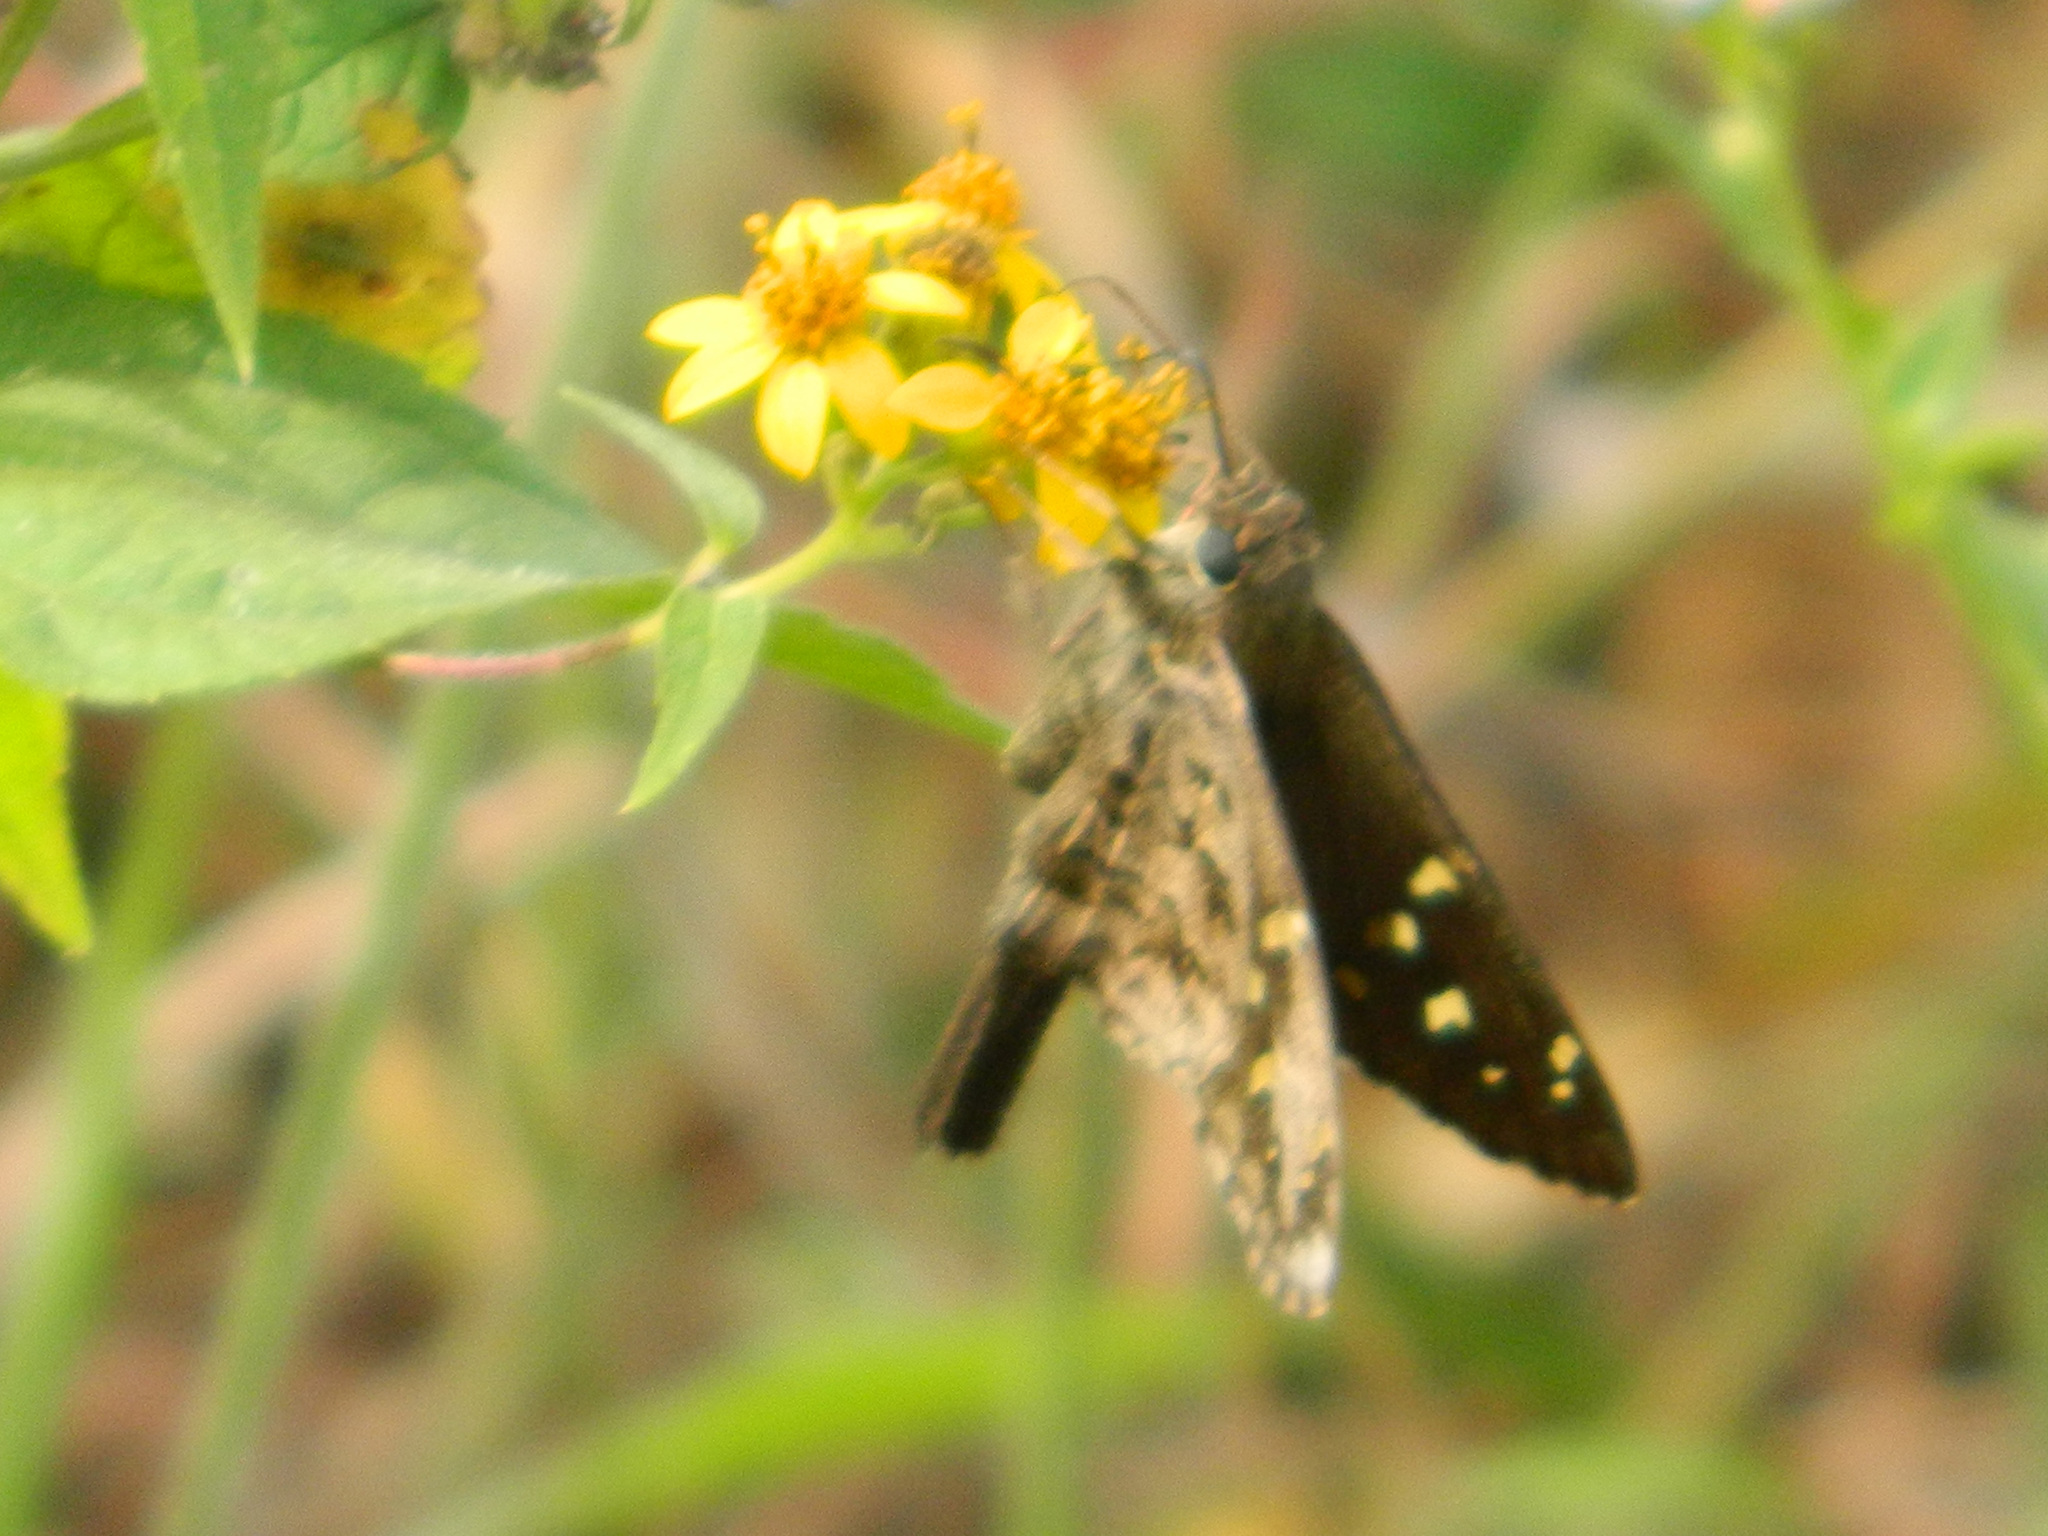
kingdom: Animalia
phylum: Arthropoda
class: Insecta
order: Lepidoptera
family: Hesperiidae
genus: Thorybes
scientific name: Thorybes
